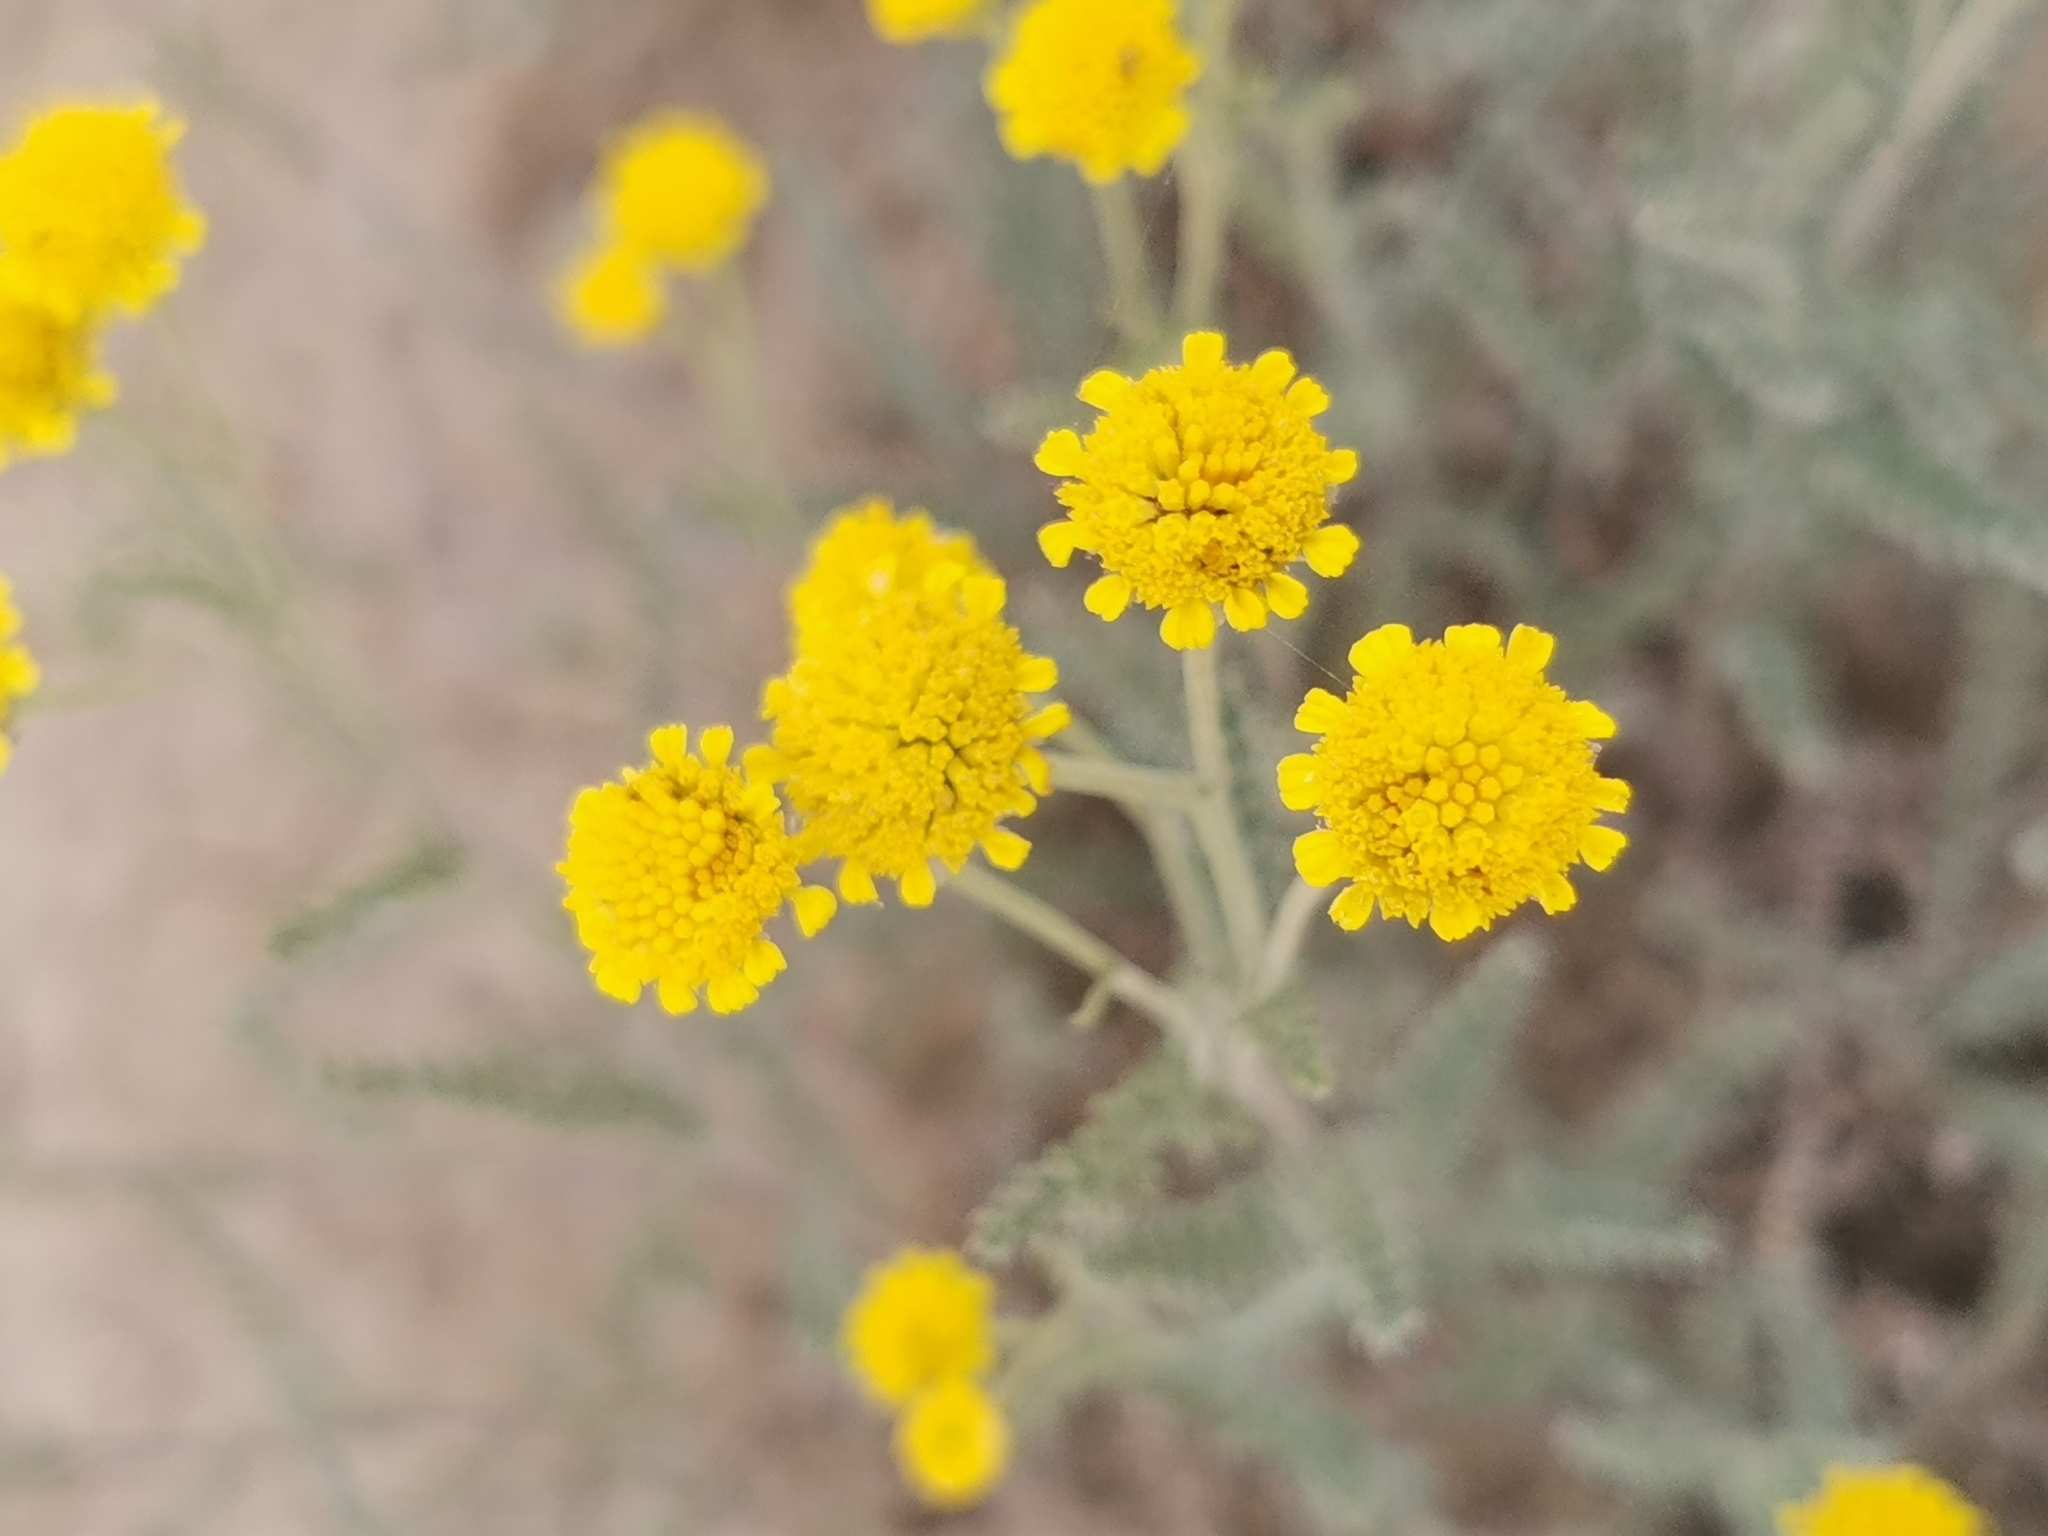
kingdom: Plantae
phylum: Tracheophyta
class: Magnoliopsida
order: Asterales
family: Asteraceae
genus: Tanacetum
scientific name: Tanacetum achilleifolium
